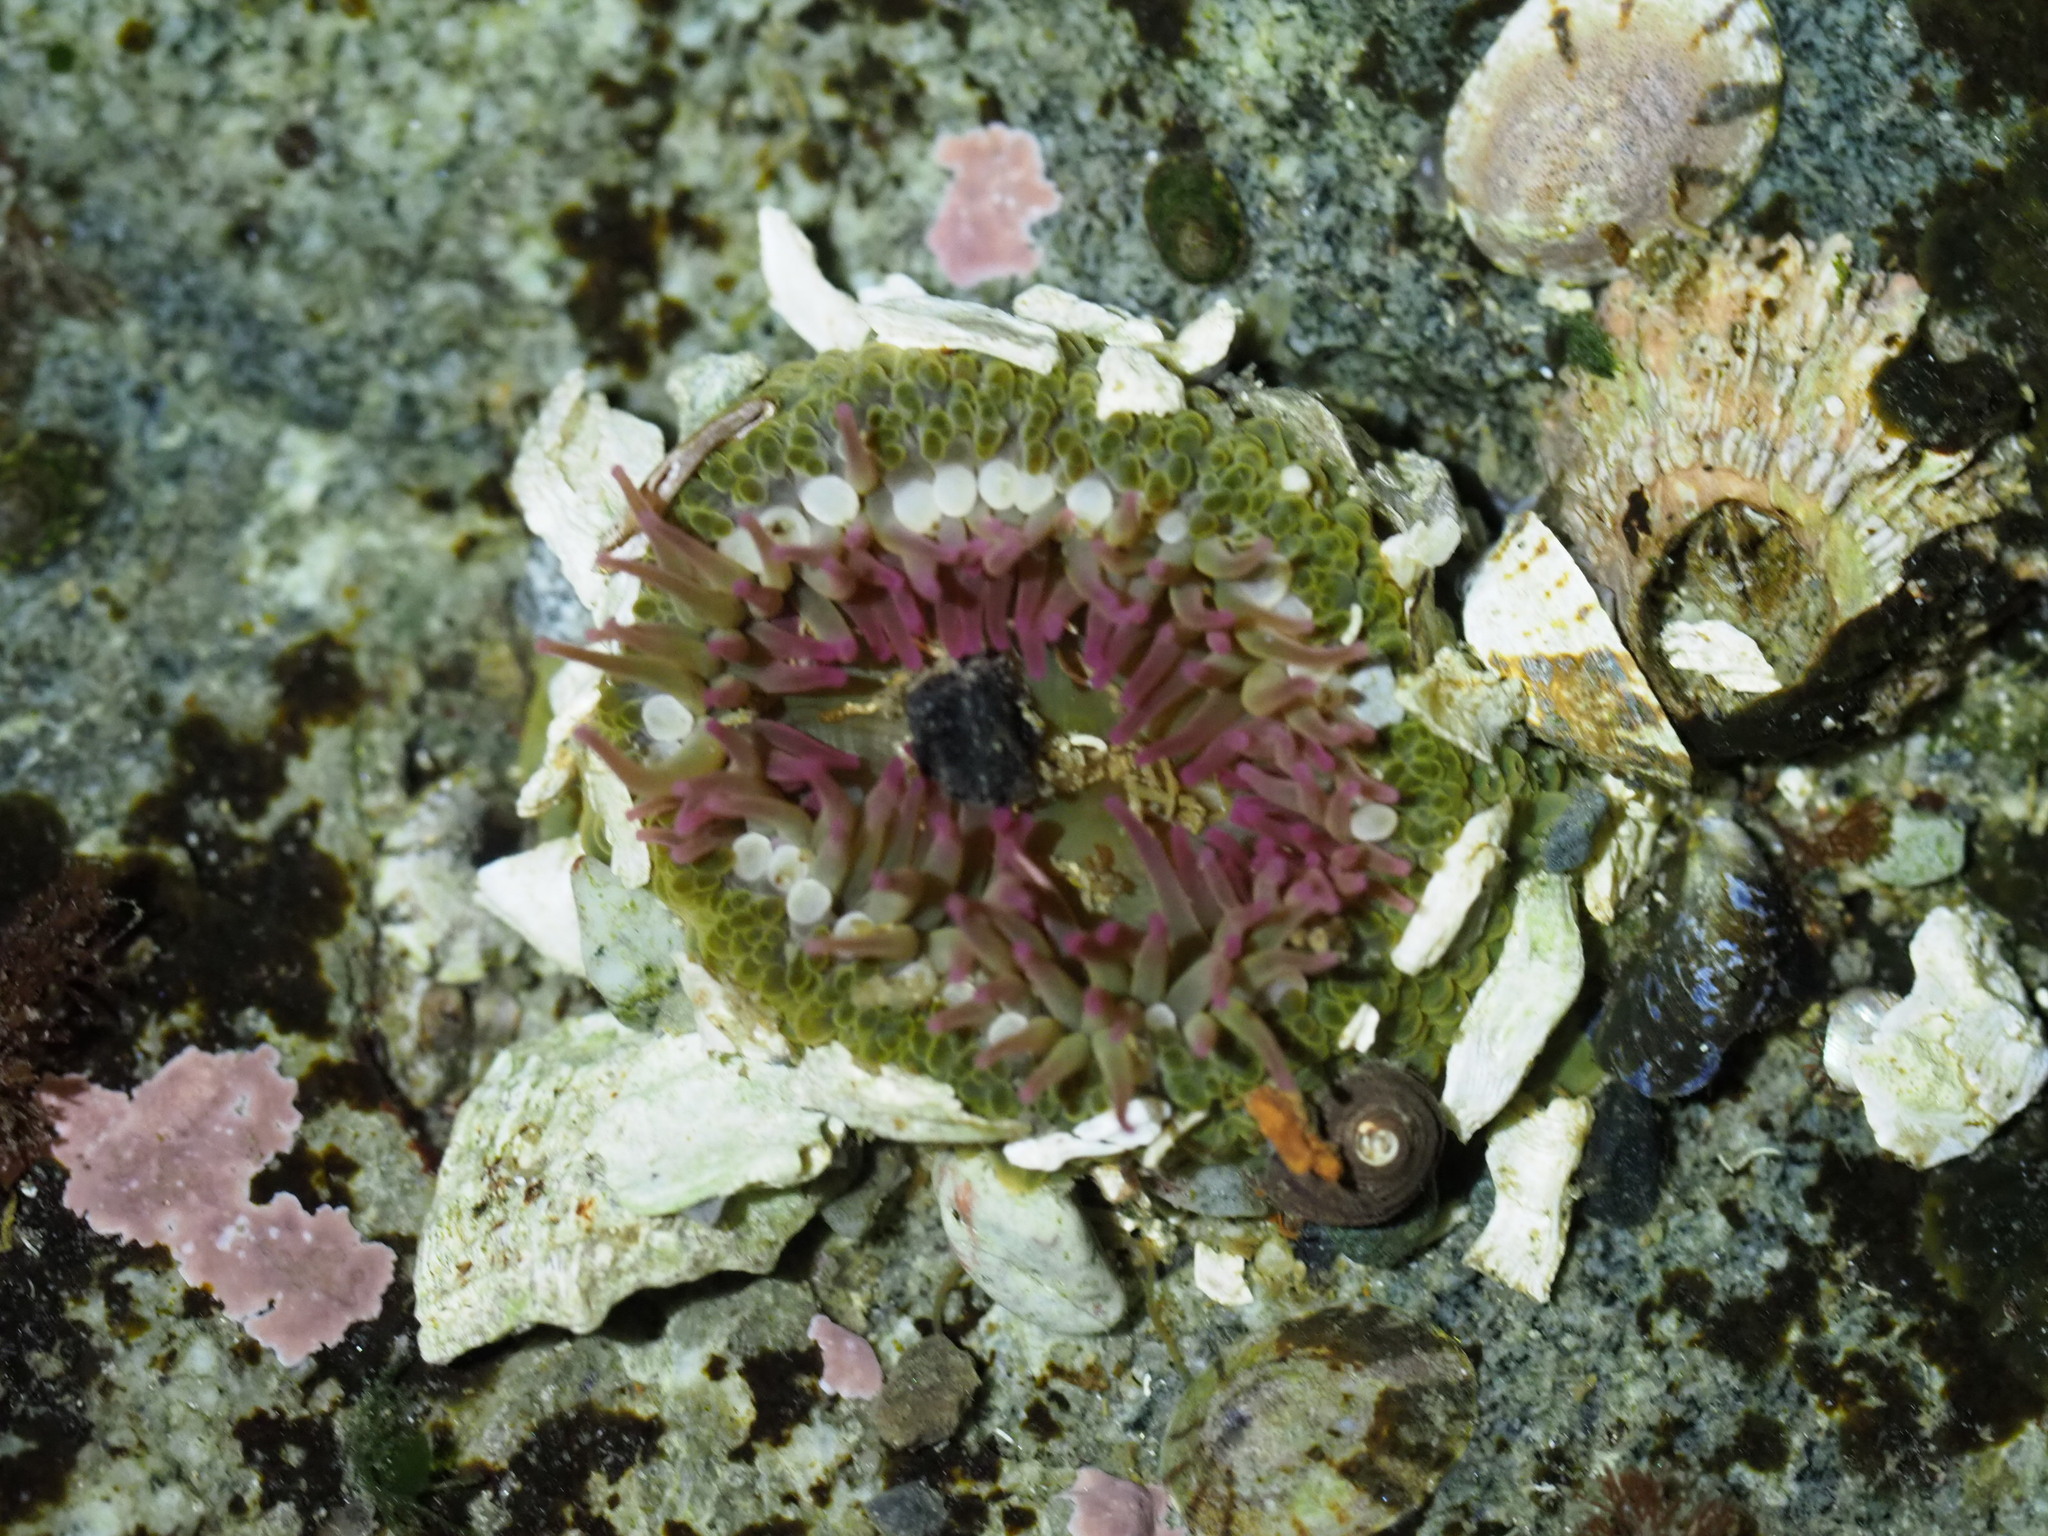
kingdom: Animalia
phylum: Cnidaria
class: Anthozoa
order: Actiniaria
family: Actiniidae
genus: Anthopleura
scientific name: Anthopleura elegantissima
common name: Clonal anemone
